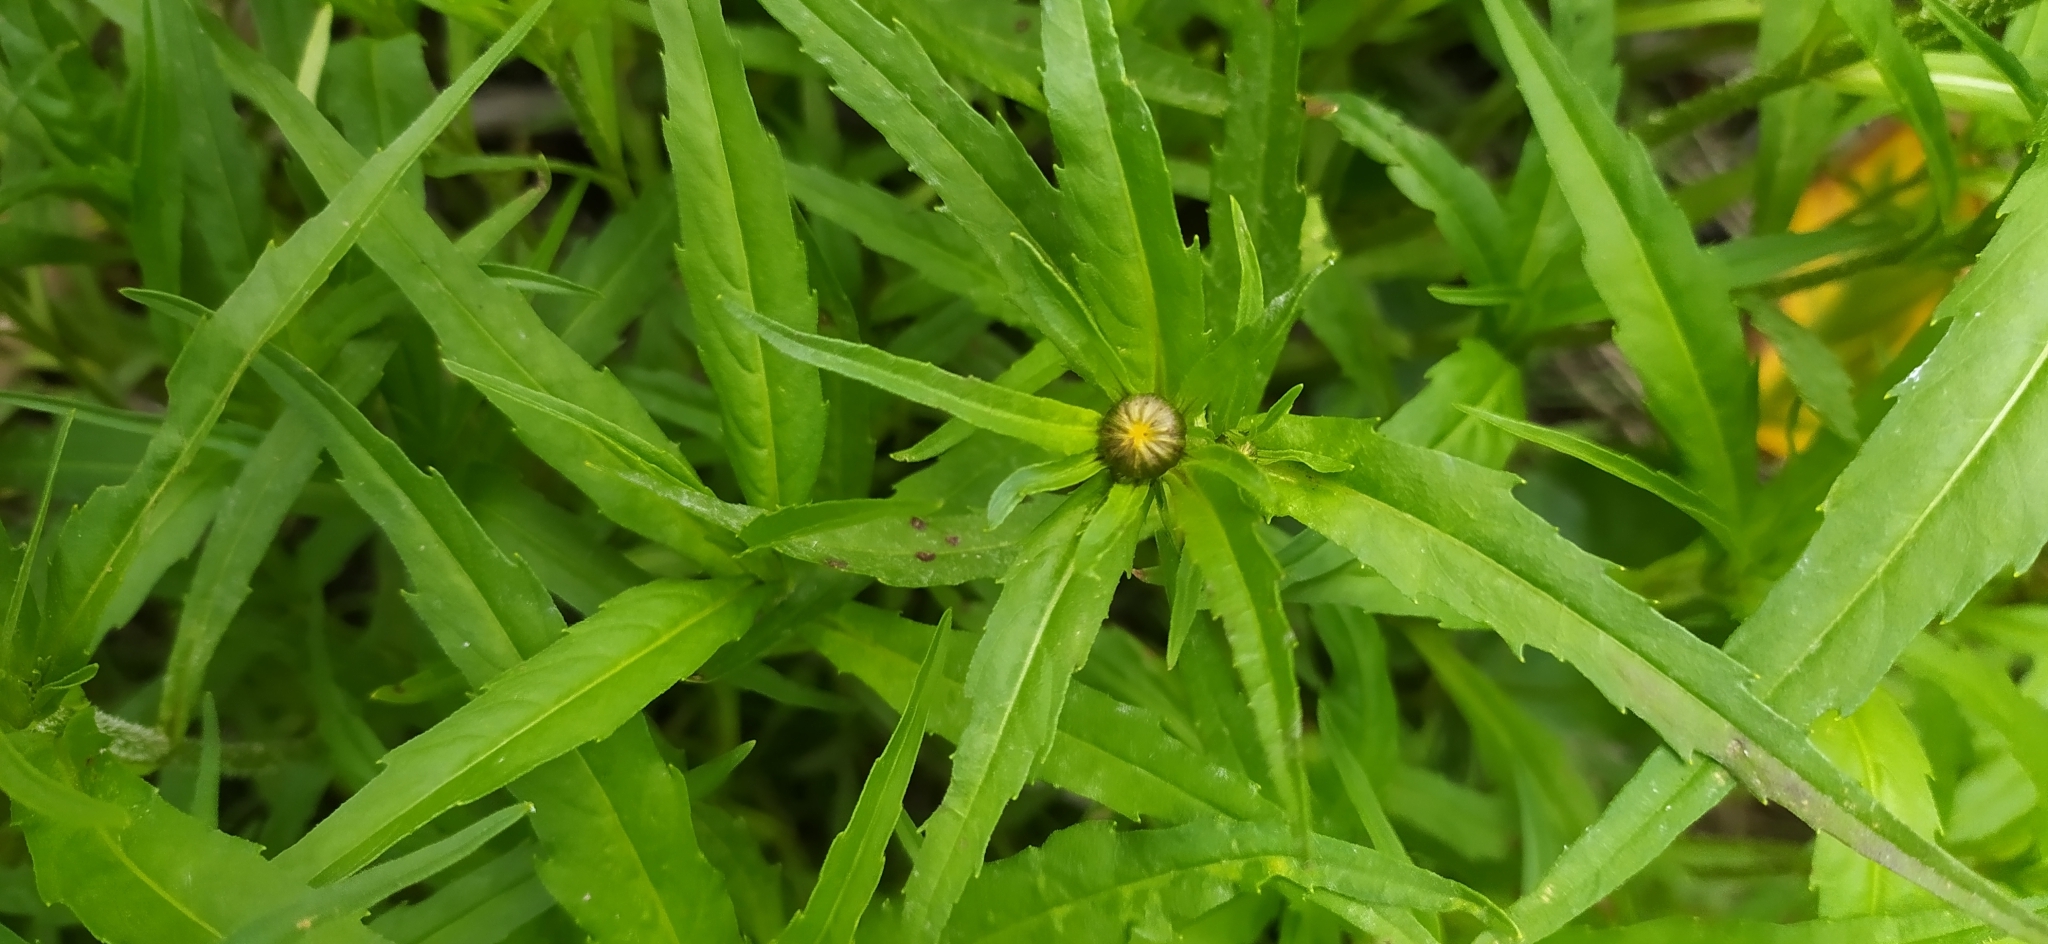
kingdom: Plantae
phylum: Tracheophyta
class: Magnoliopsida
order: Asterales
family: Asteraceae
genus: Bidens
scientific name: Bidens cernua
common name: Nodding bur-marigold
